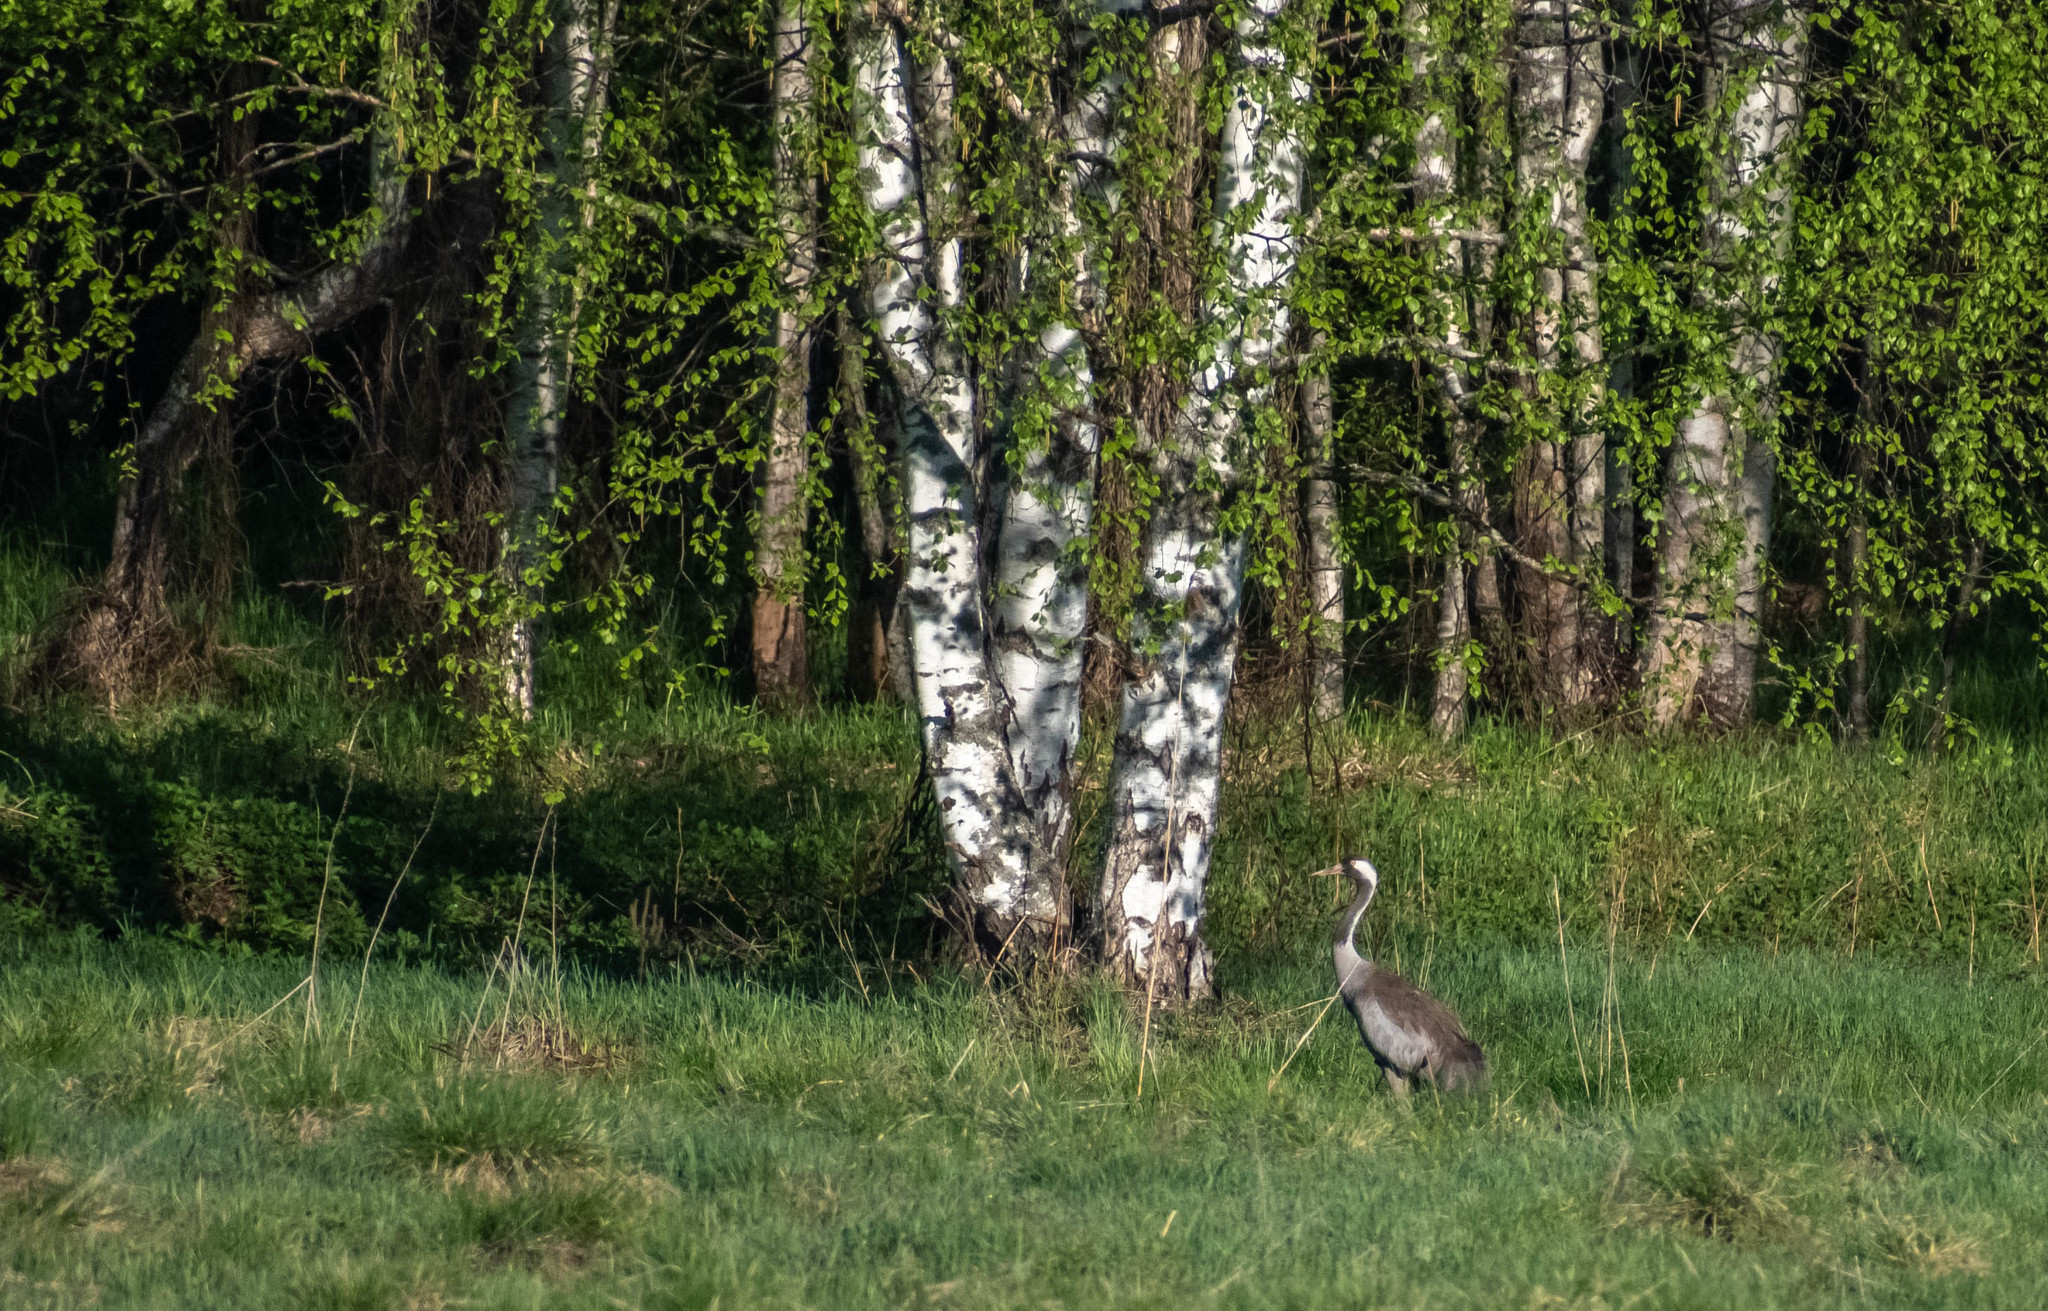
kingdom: Animalia
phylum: Chordata
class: Aves
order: Gruiformes
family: Gruidae
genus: Grus
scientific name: Grus grus
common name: Common crane
